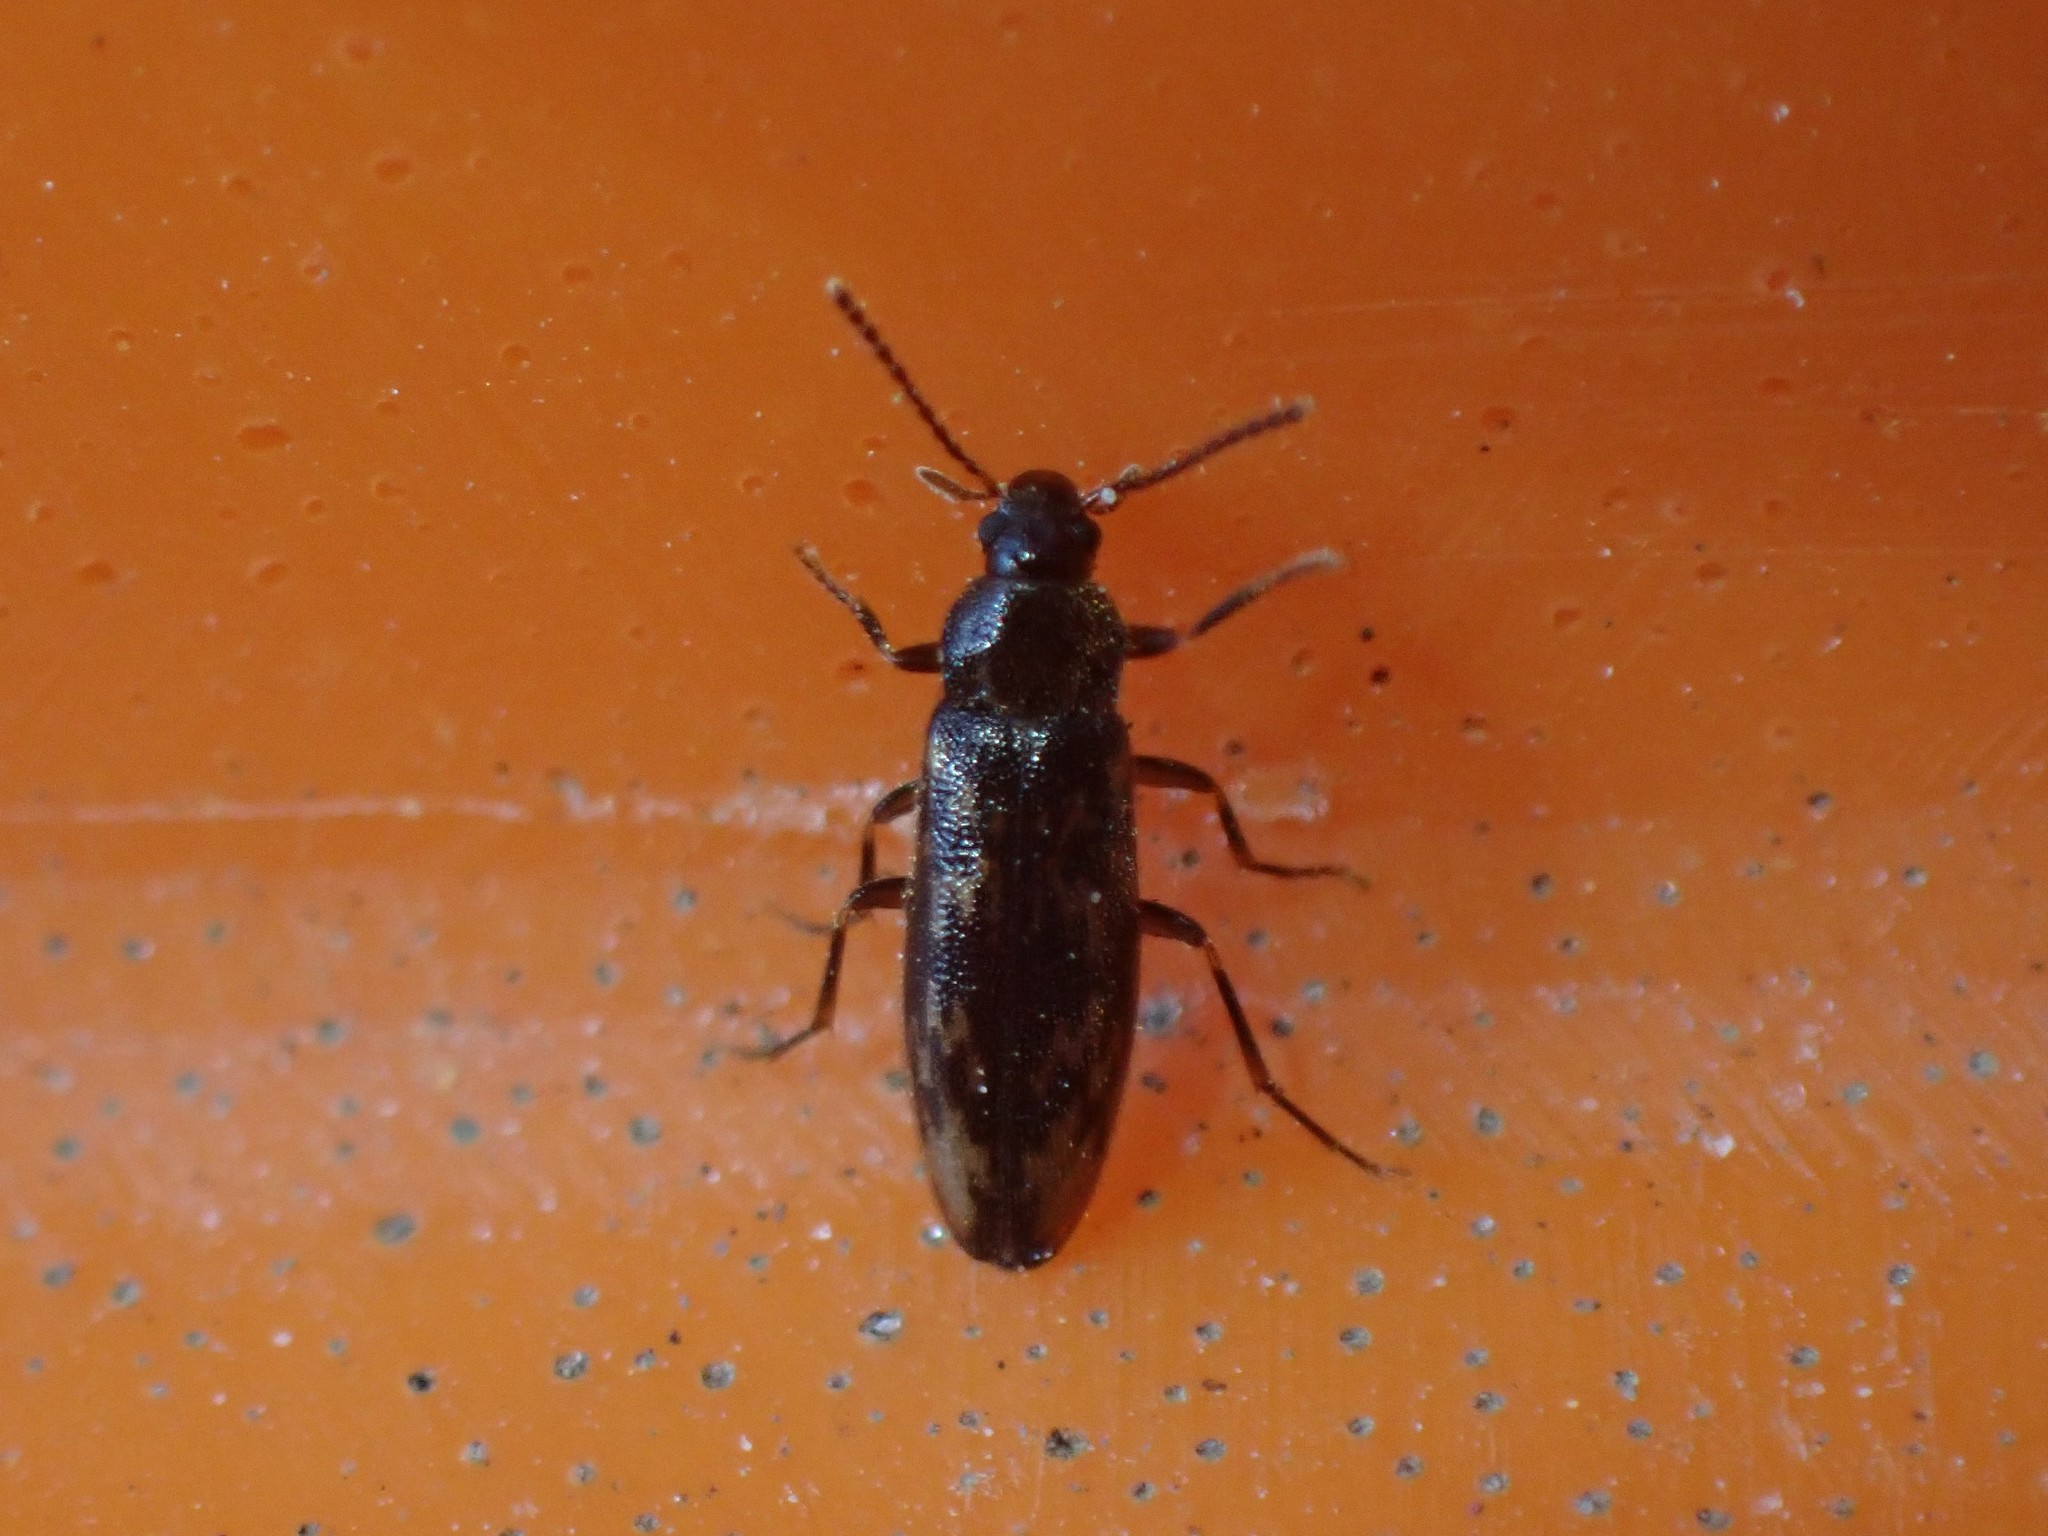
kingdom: Animalia
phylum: Arthropoda
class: Insecta
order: Coleoptera
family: Melandryidae
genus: Prothalpia
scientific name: Prothalpia holmbergi
